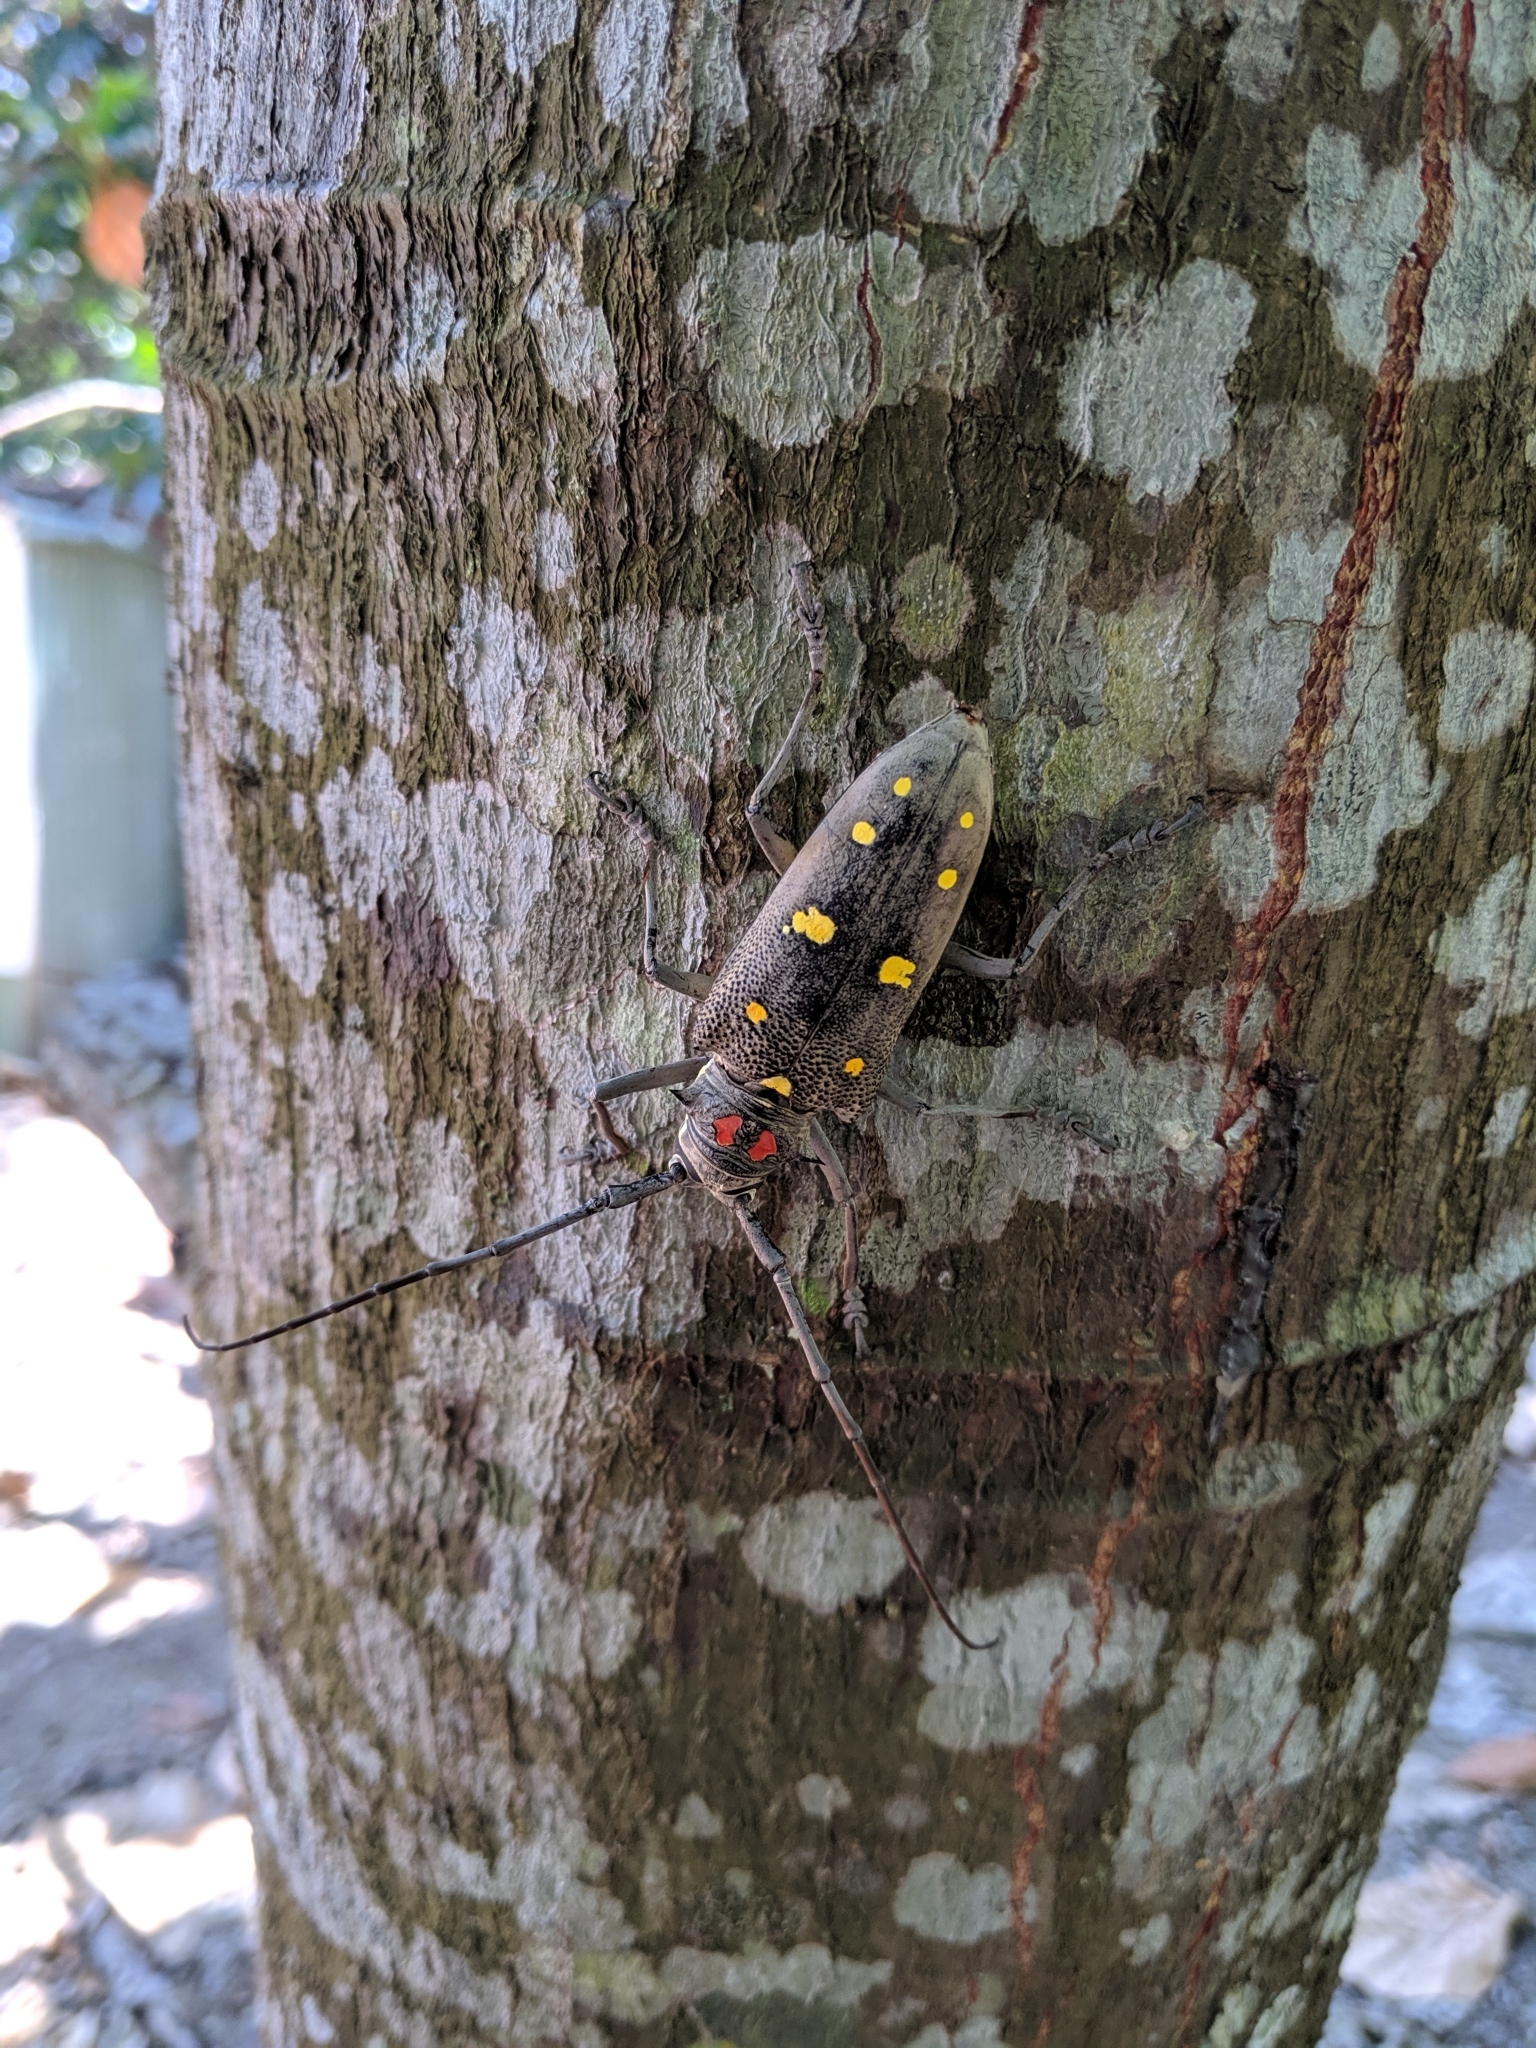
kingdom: Animalia
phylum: Arthropoda
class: Insecta
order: Coleoptera
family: Cerambycidae
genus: Batocera
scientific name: Batocera rubus
